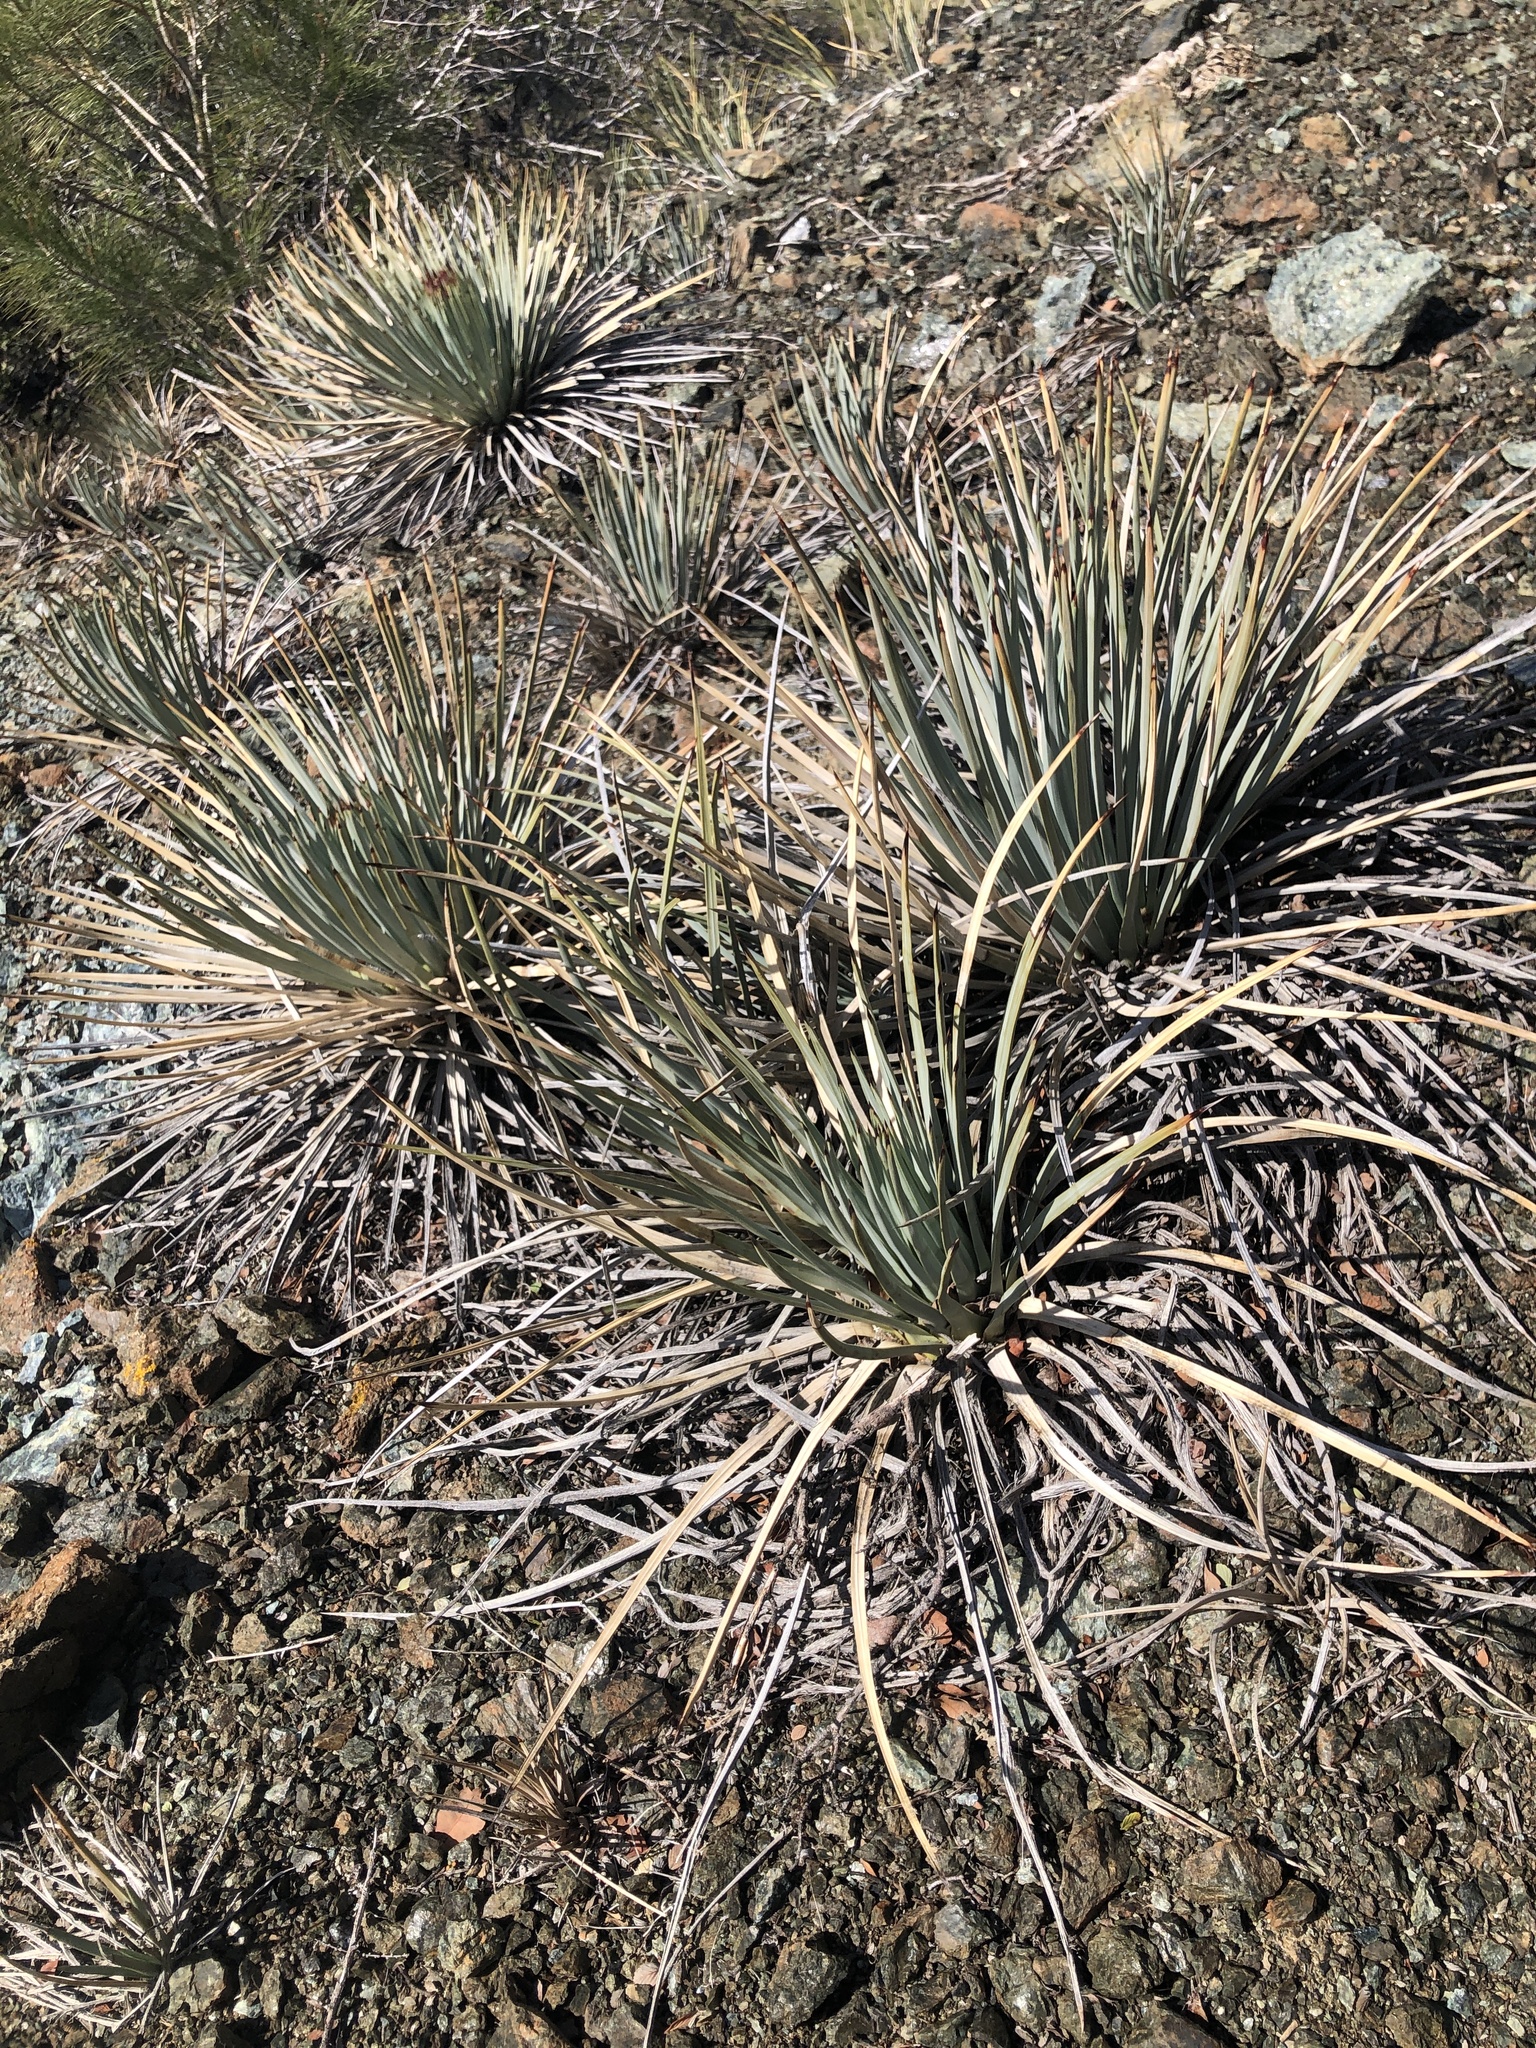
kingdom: Plantae
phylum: Tracheophyta
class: Liliopsida
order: Asparagales
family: Asparagaceae
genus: Hesperoyucca
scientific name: Hesperoyucca whipplei
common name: Our lord's-candle
